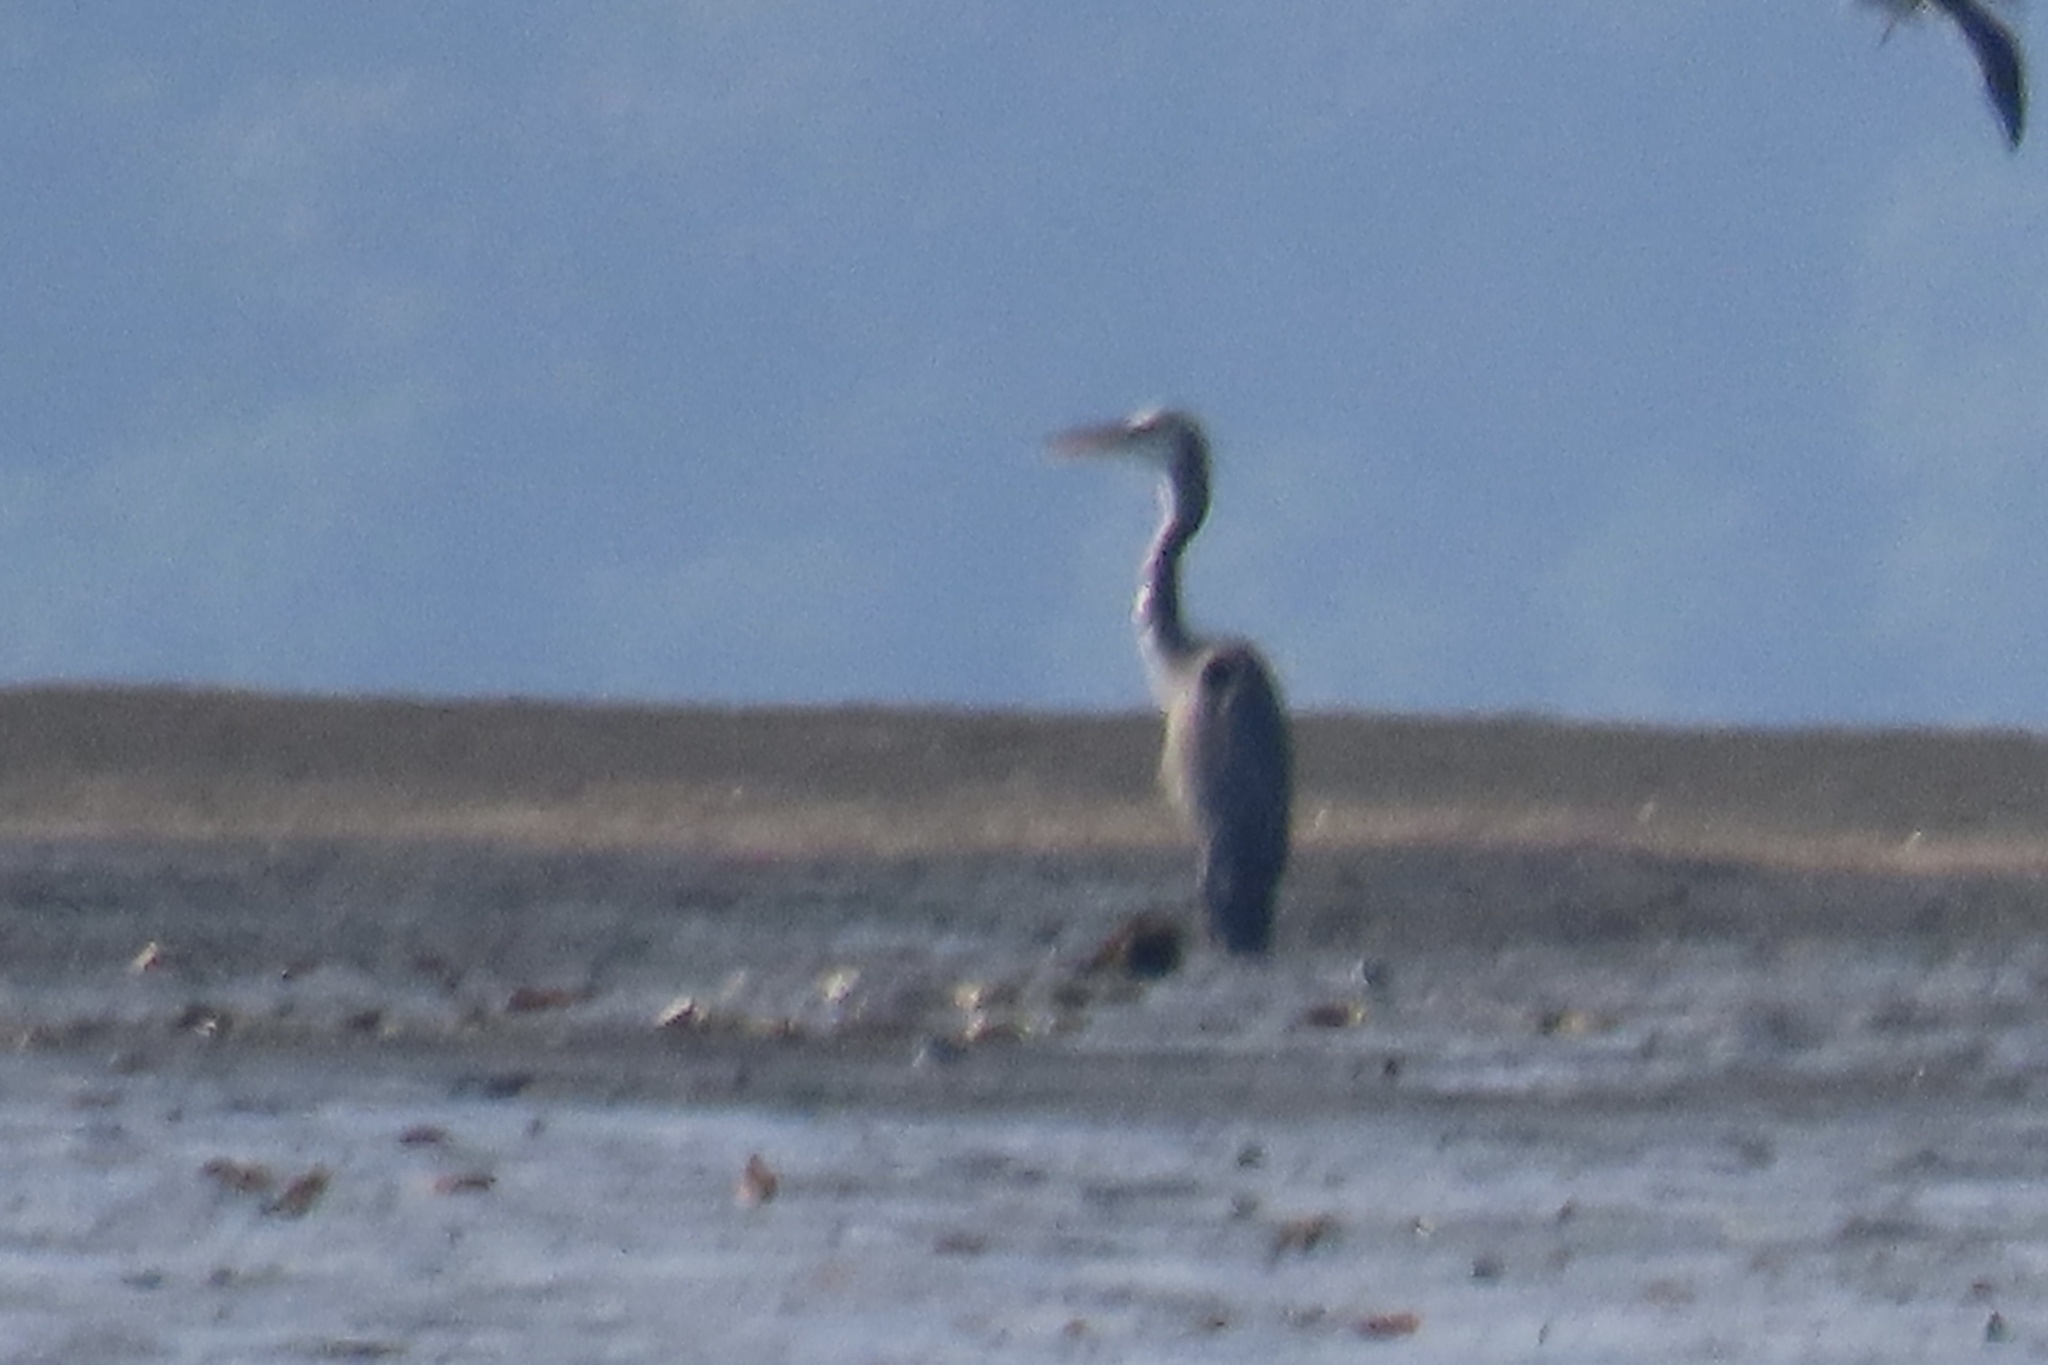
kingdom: Animalia
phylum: Chordata
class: Aves
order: Pelecaniformes
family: Ardeidae
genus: Ardea
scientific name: Ardea herodias
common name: Great blue heron
